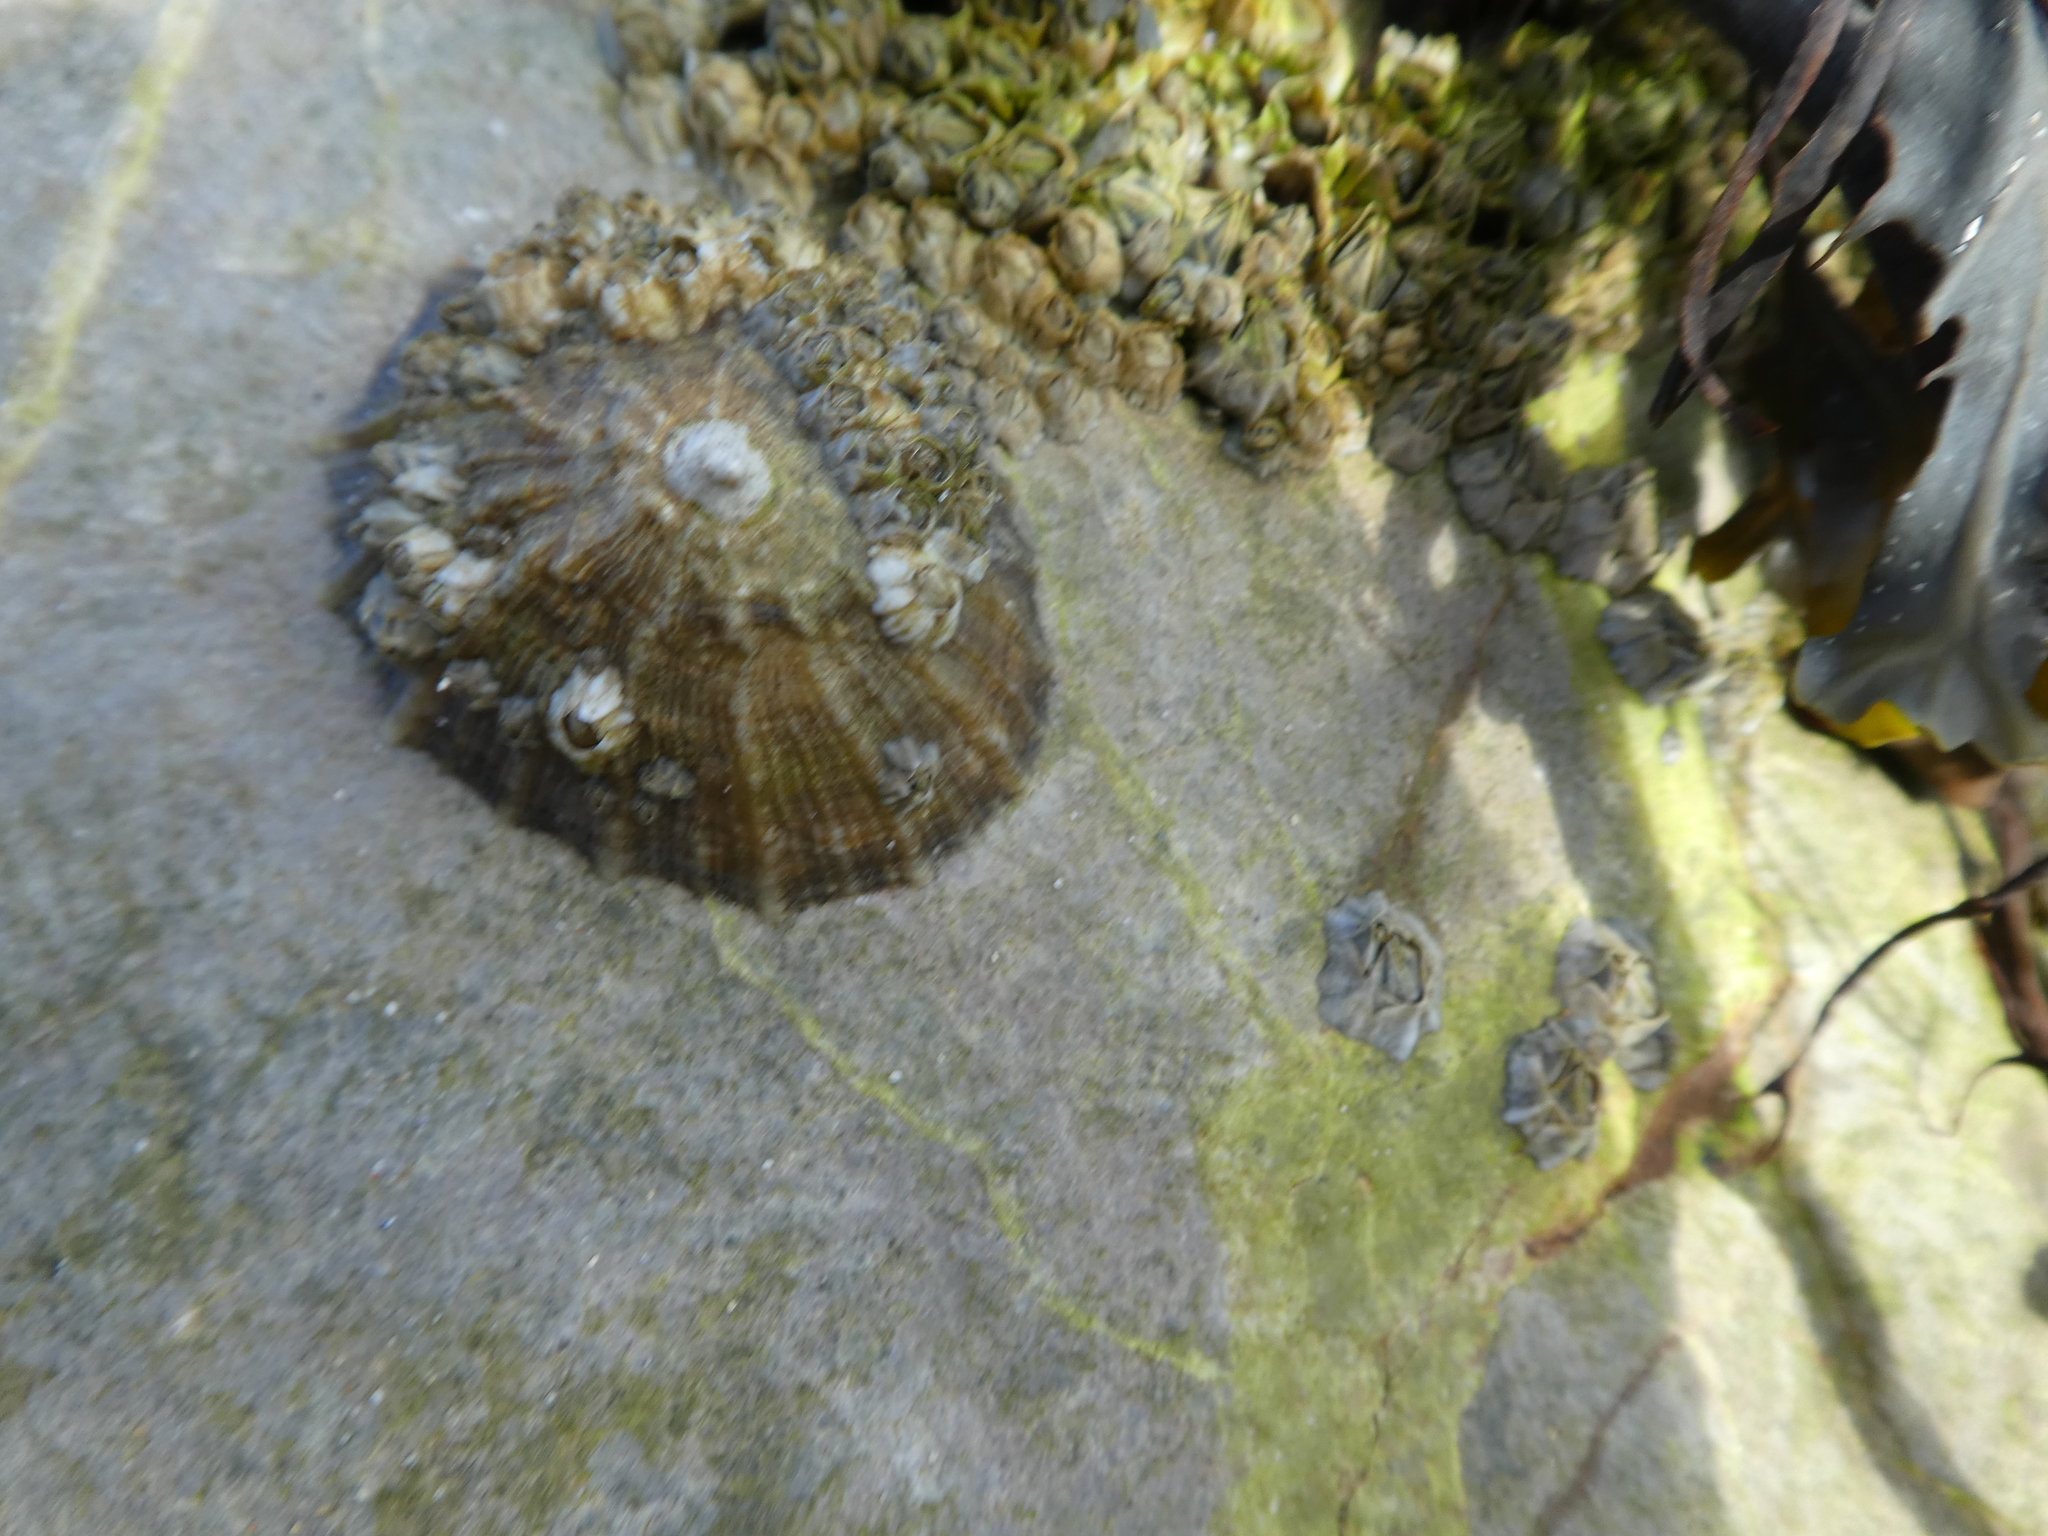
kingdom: Animalia
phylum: Mollusca
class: Gastropoda
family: Patellidae
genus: Patella
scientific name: Patella
